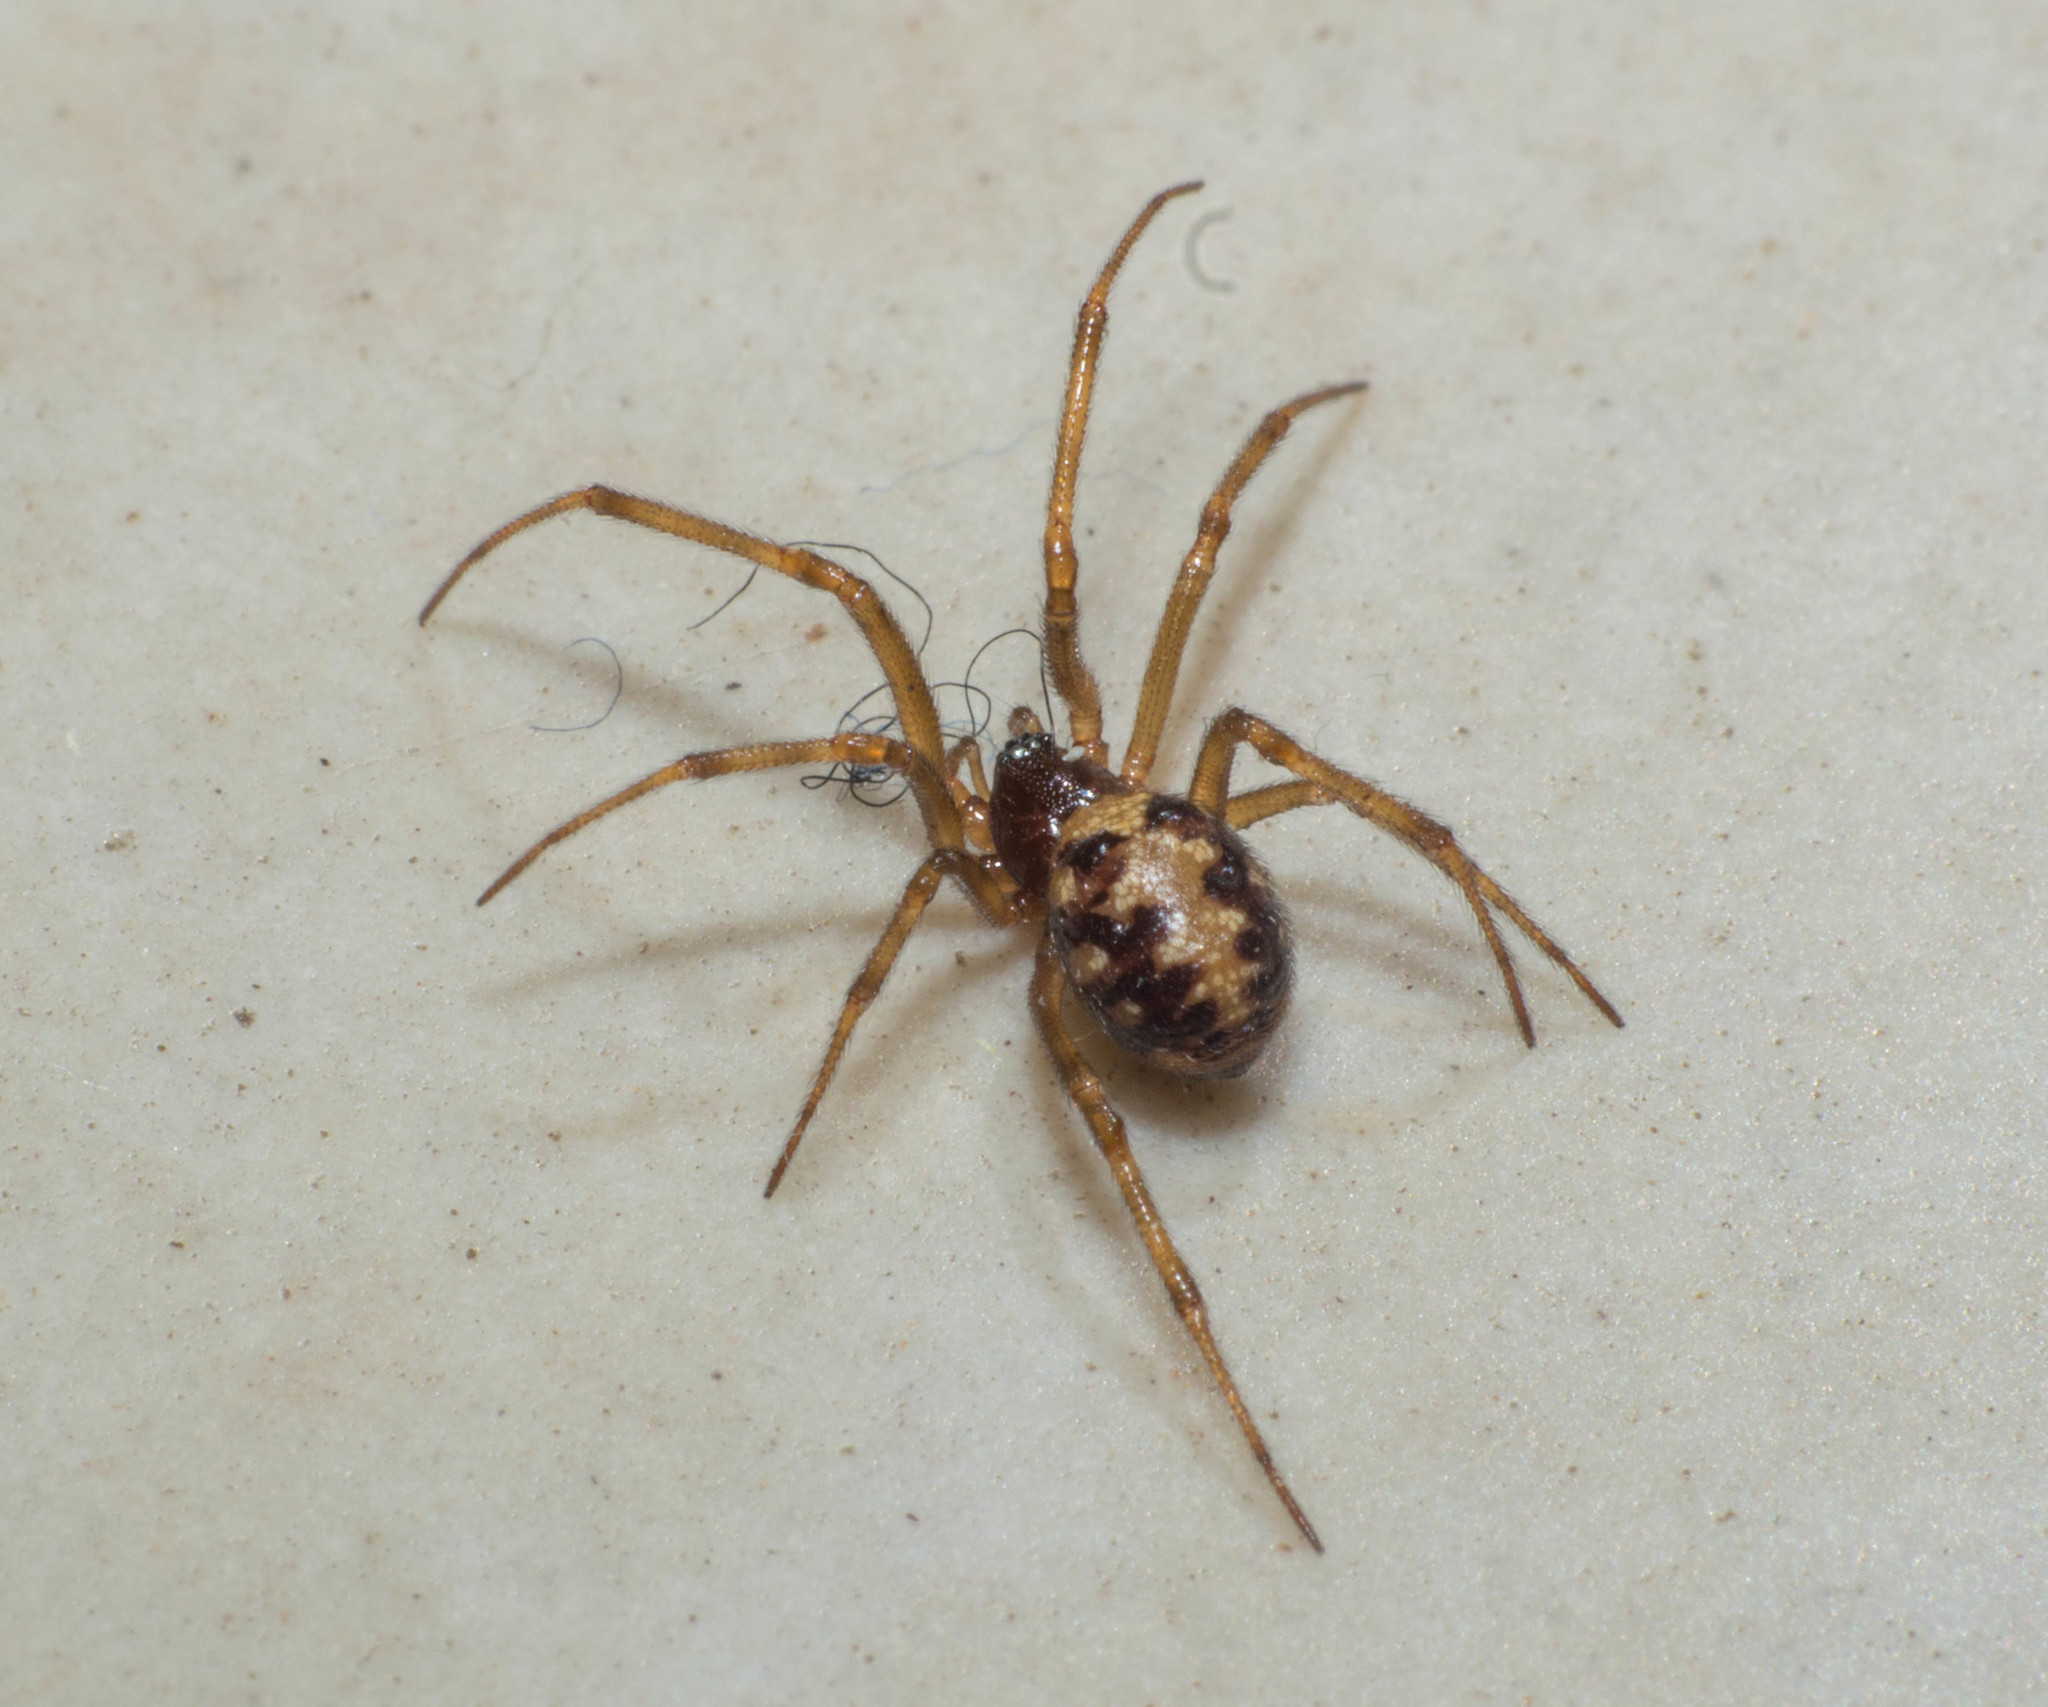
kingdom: Animalia
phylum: Arthropoda
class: Arachnida
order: Araneae
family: Theridiidae
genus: Steatoda
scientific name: Steatoda triangulosa
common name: Triangulate bud spider
